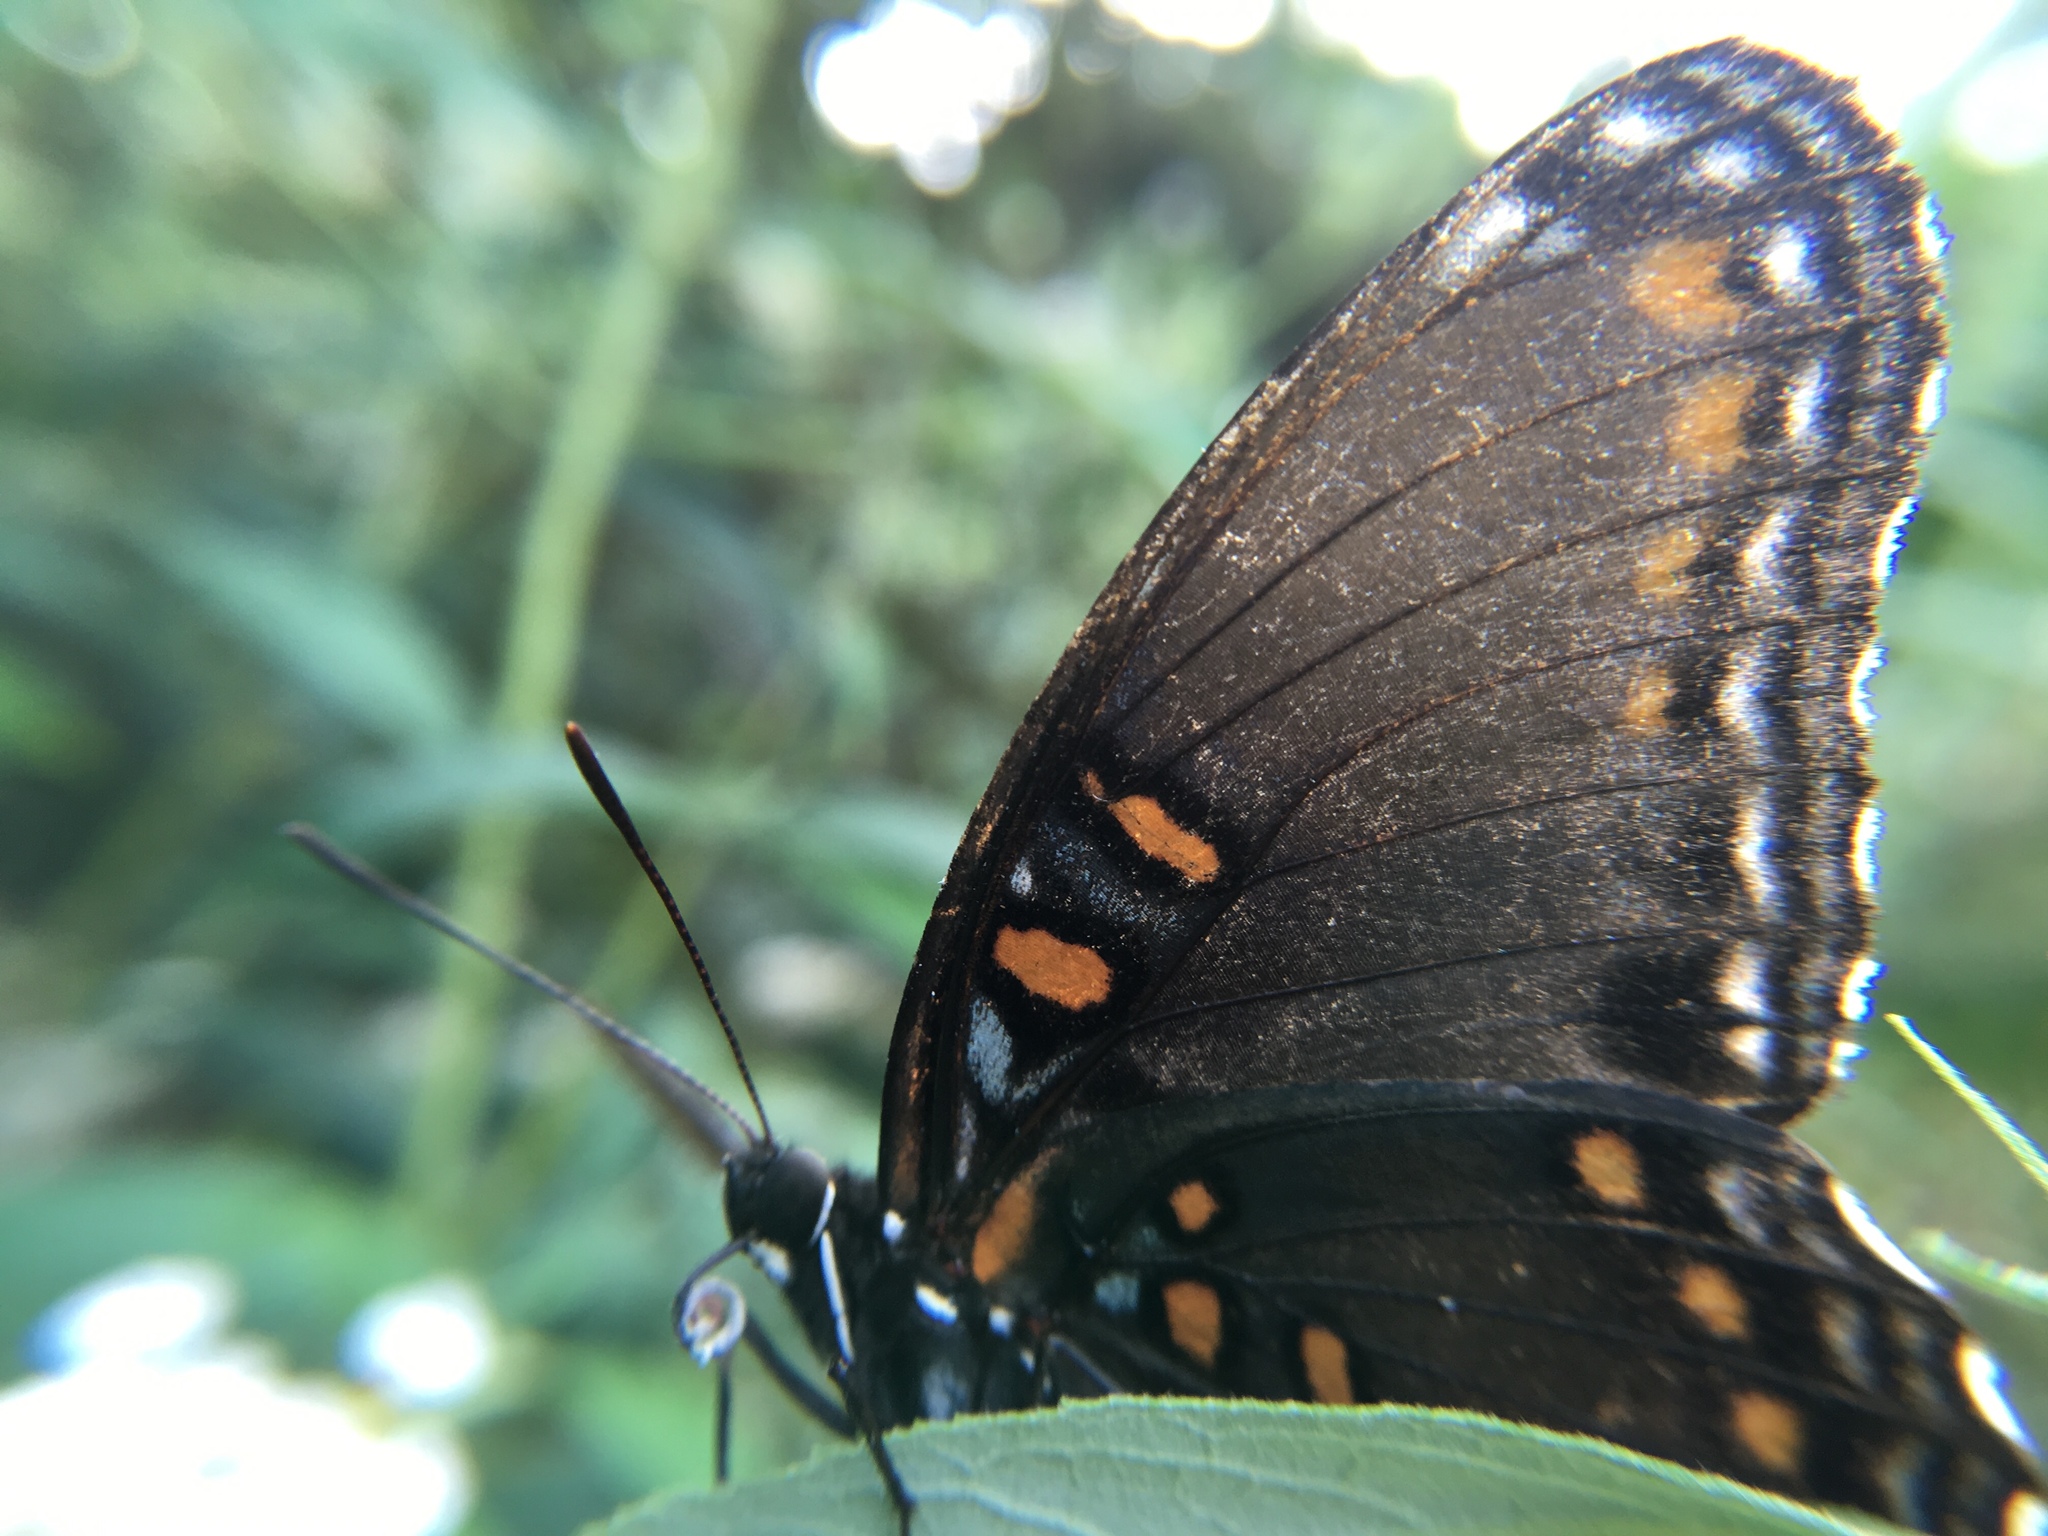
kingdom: Animalia
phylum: Arthropoda
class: Insecta
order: Lepidoptera
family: Nymphalidae
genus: Limenitis
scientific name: Limenitis astyanax
